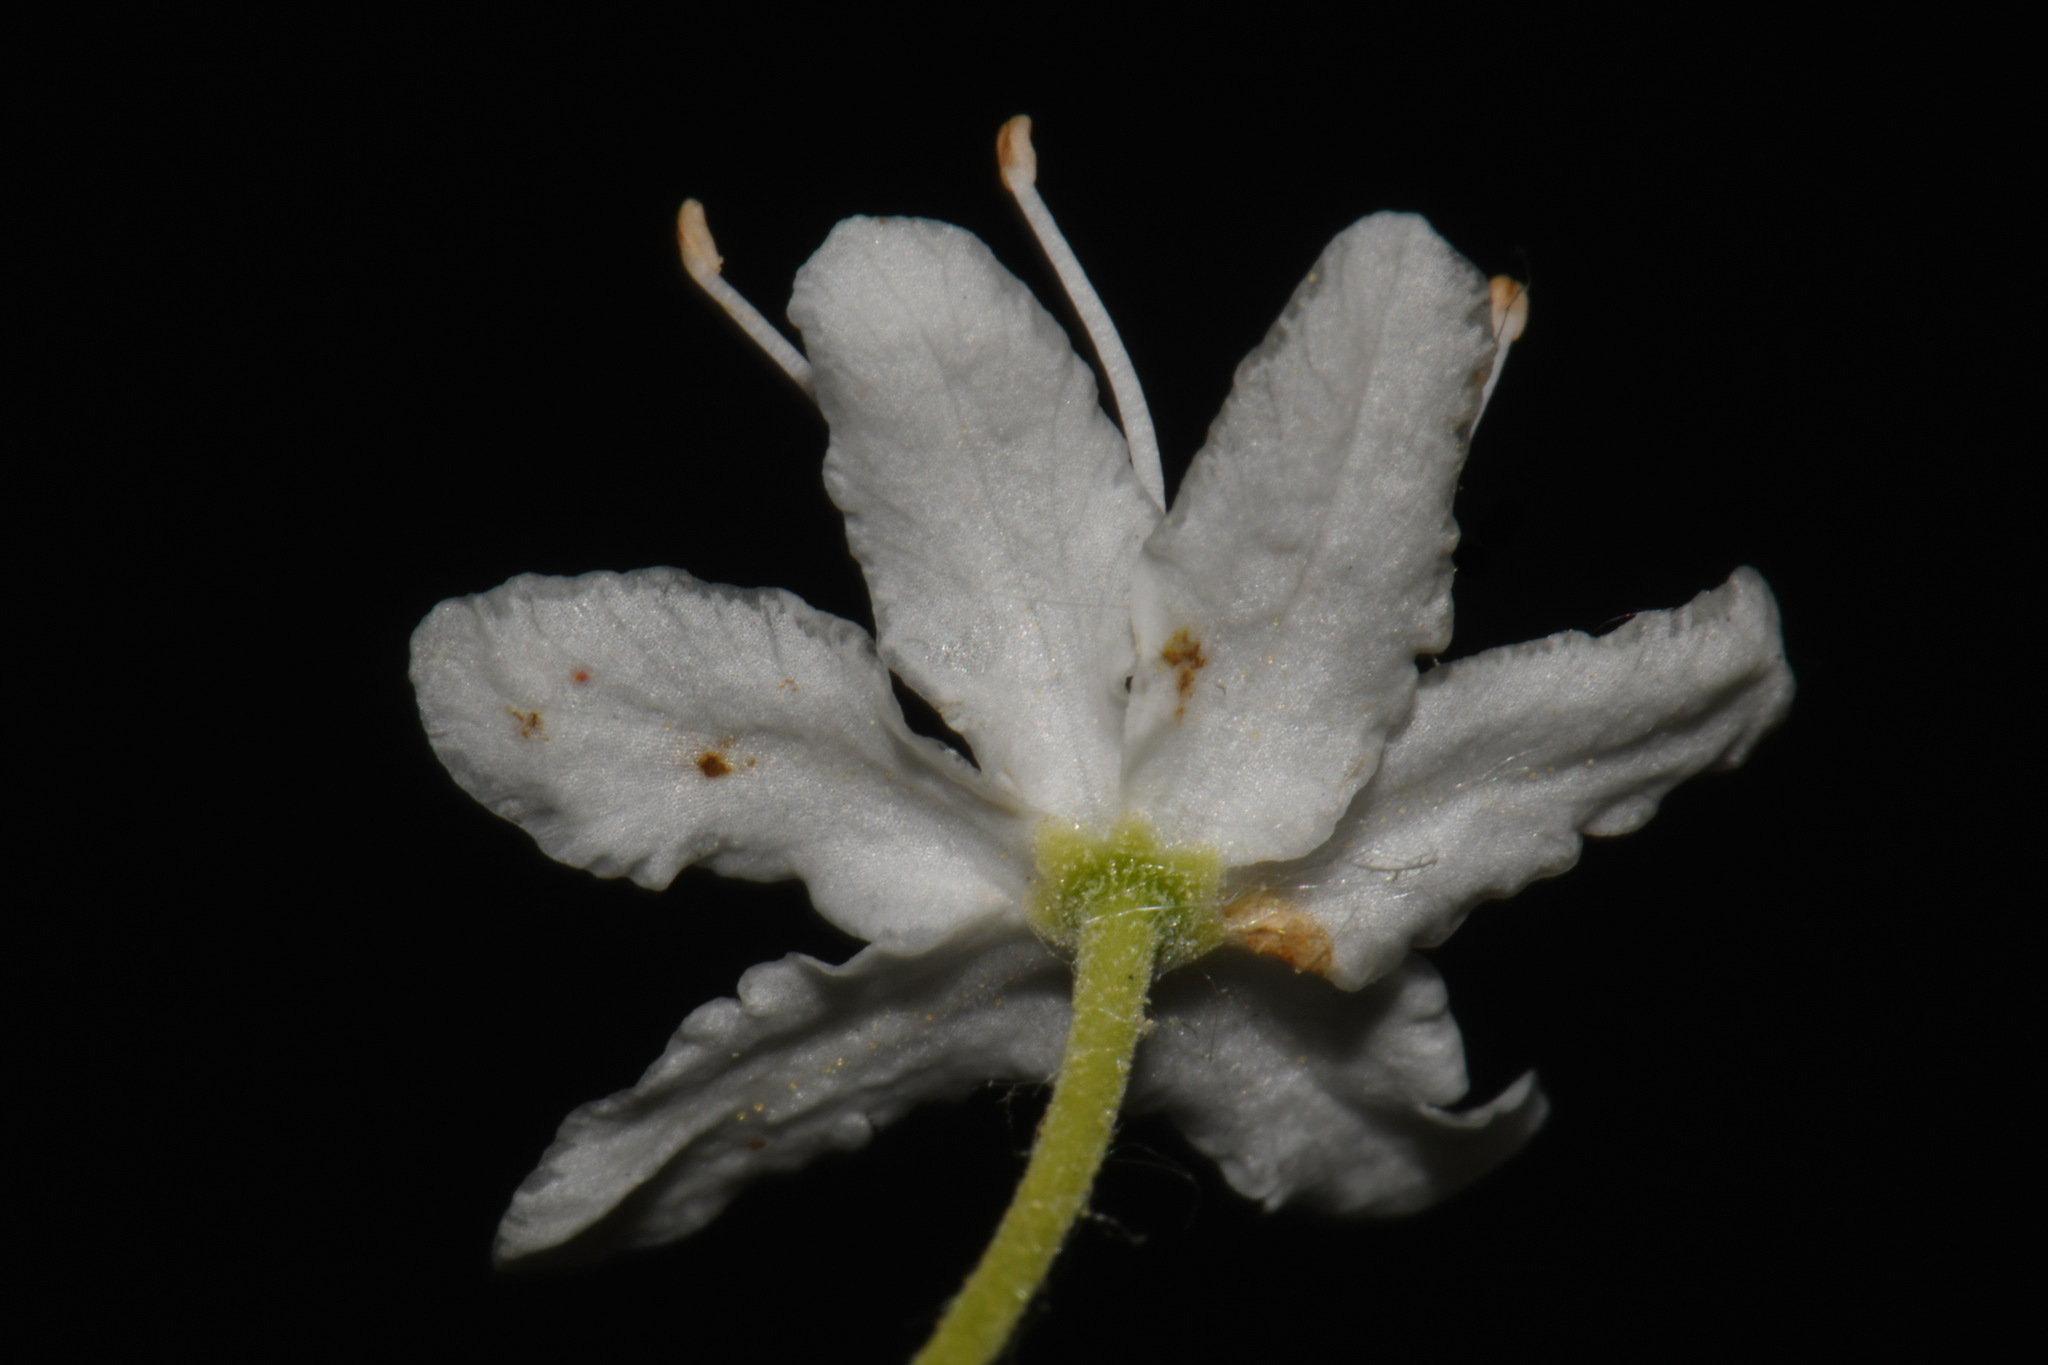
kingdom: Plantae
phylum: Tracheophyta
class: Magnoliopsida
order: Ericales
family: Ericaceae
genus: Rhododendron
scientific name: Rhododendron groenlandicum
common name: Bog labrador tea
